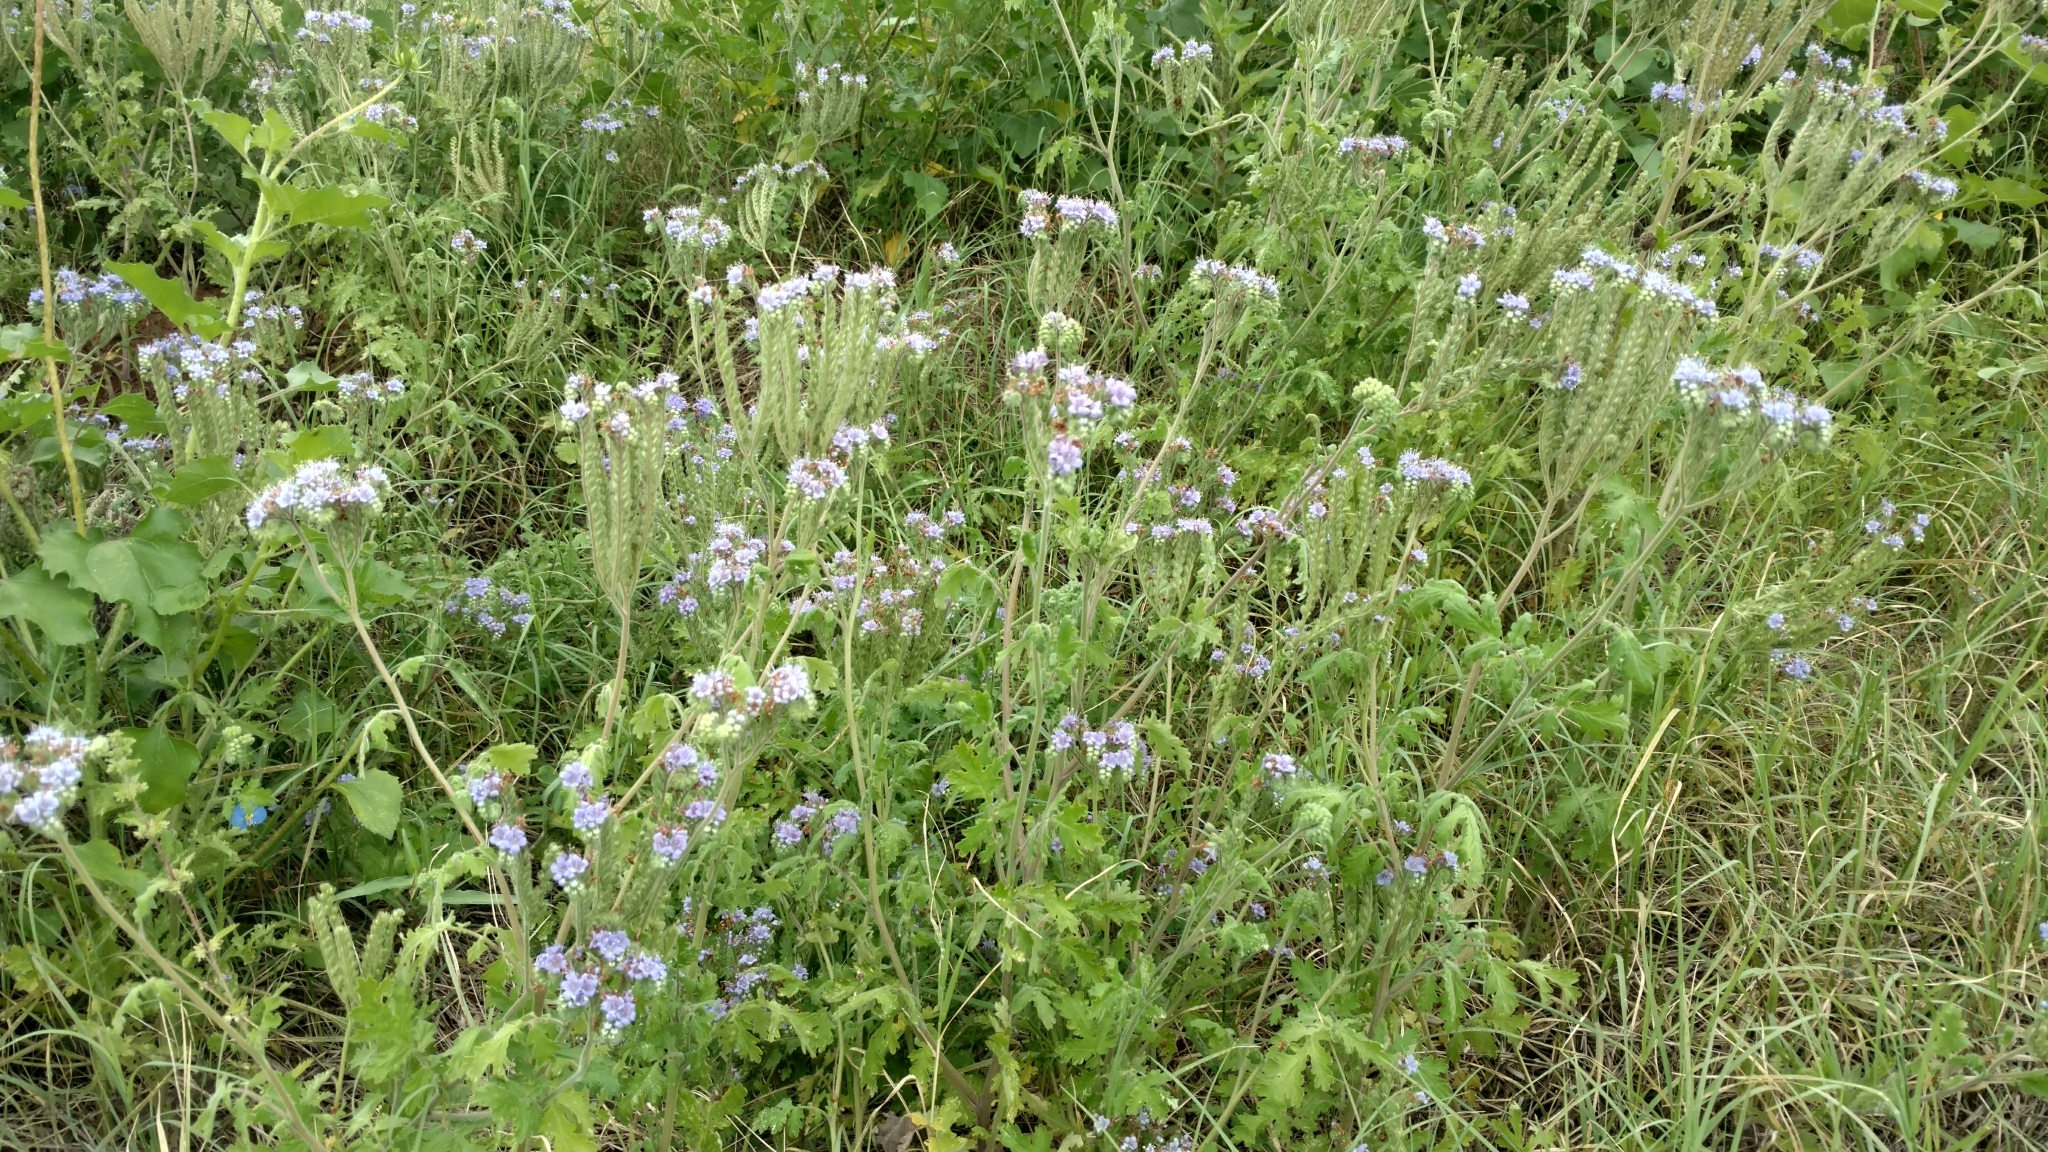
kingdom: Plantae
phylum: Tracheophyta
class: Magnoliopsida
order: Boraginales
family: Hydrophyllaceae
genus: Phacelia
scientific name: Phacelia congesta
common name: Blue curls
